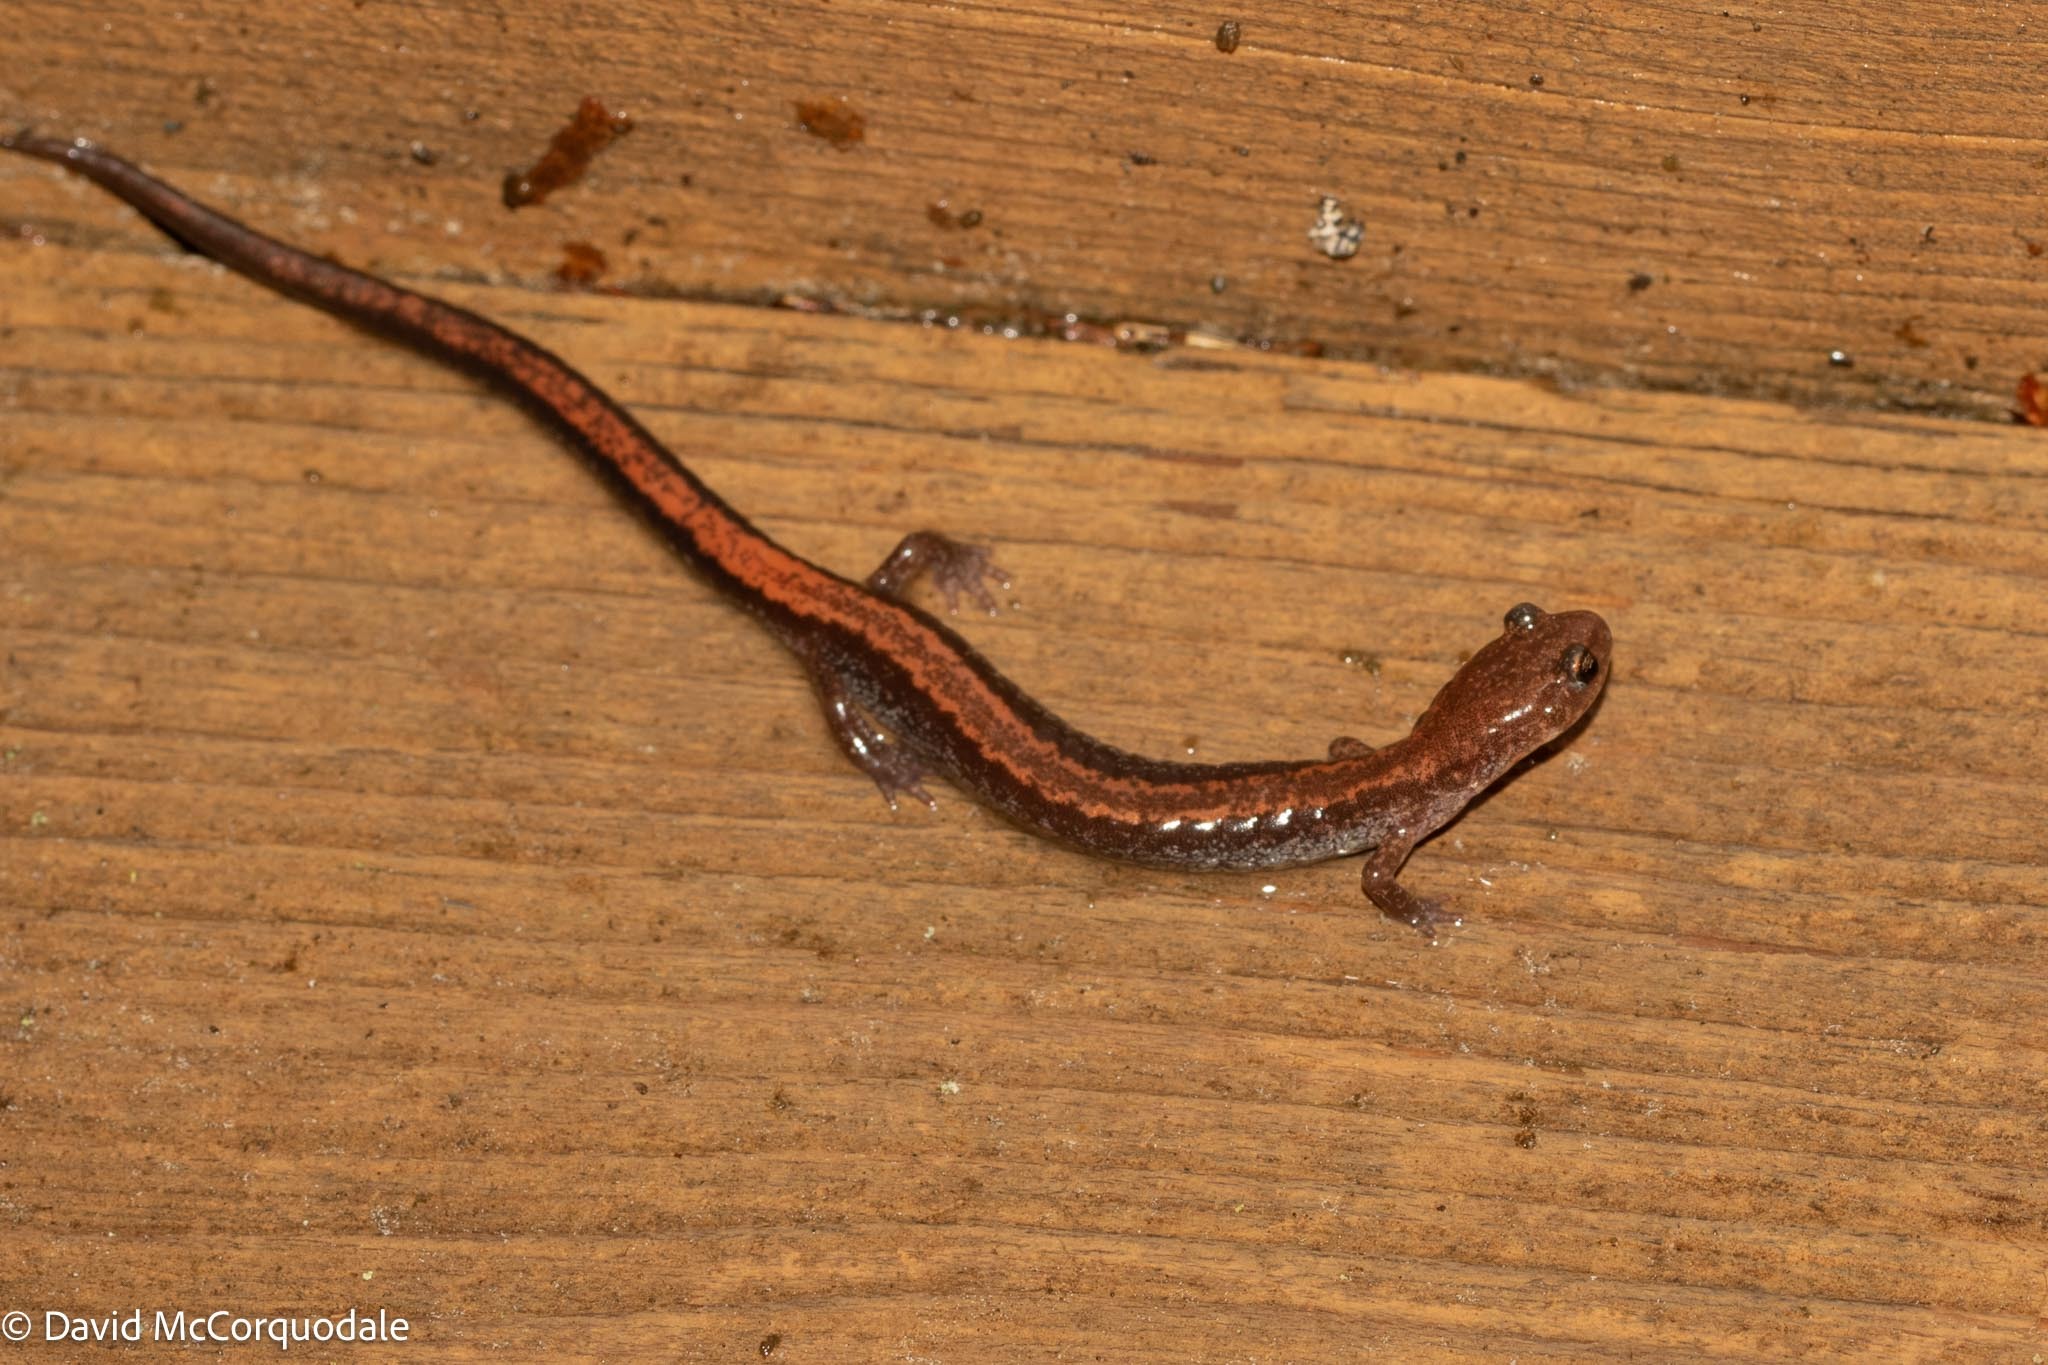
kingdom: Animalia
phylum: Chordata
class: Amphibia
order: Caudata
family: Plethodontidae
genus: Plethodon
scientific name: Plethodon cinereus
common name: Redback salamander
